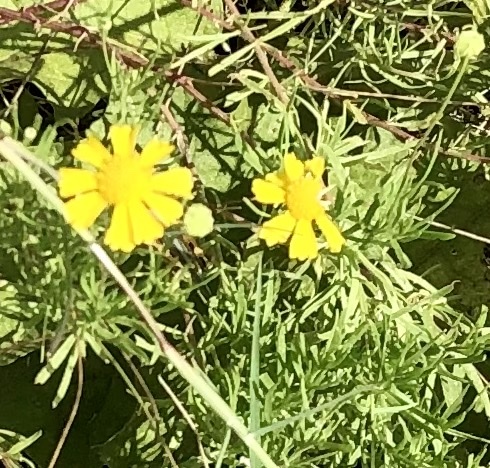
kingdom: Plantae
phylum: Tracheophyta
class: Magnoliopsida
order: Asterales
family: Asteraceae
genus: Helenium
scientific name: Helenium amarum
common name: Bitter sneezeweed
